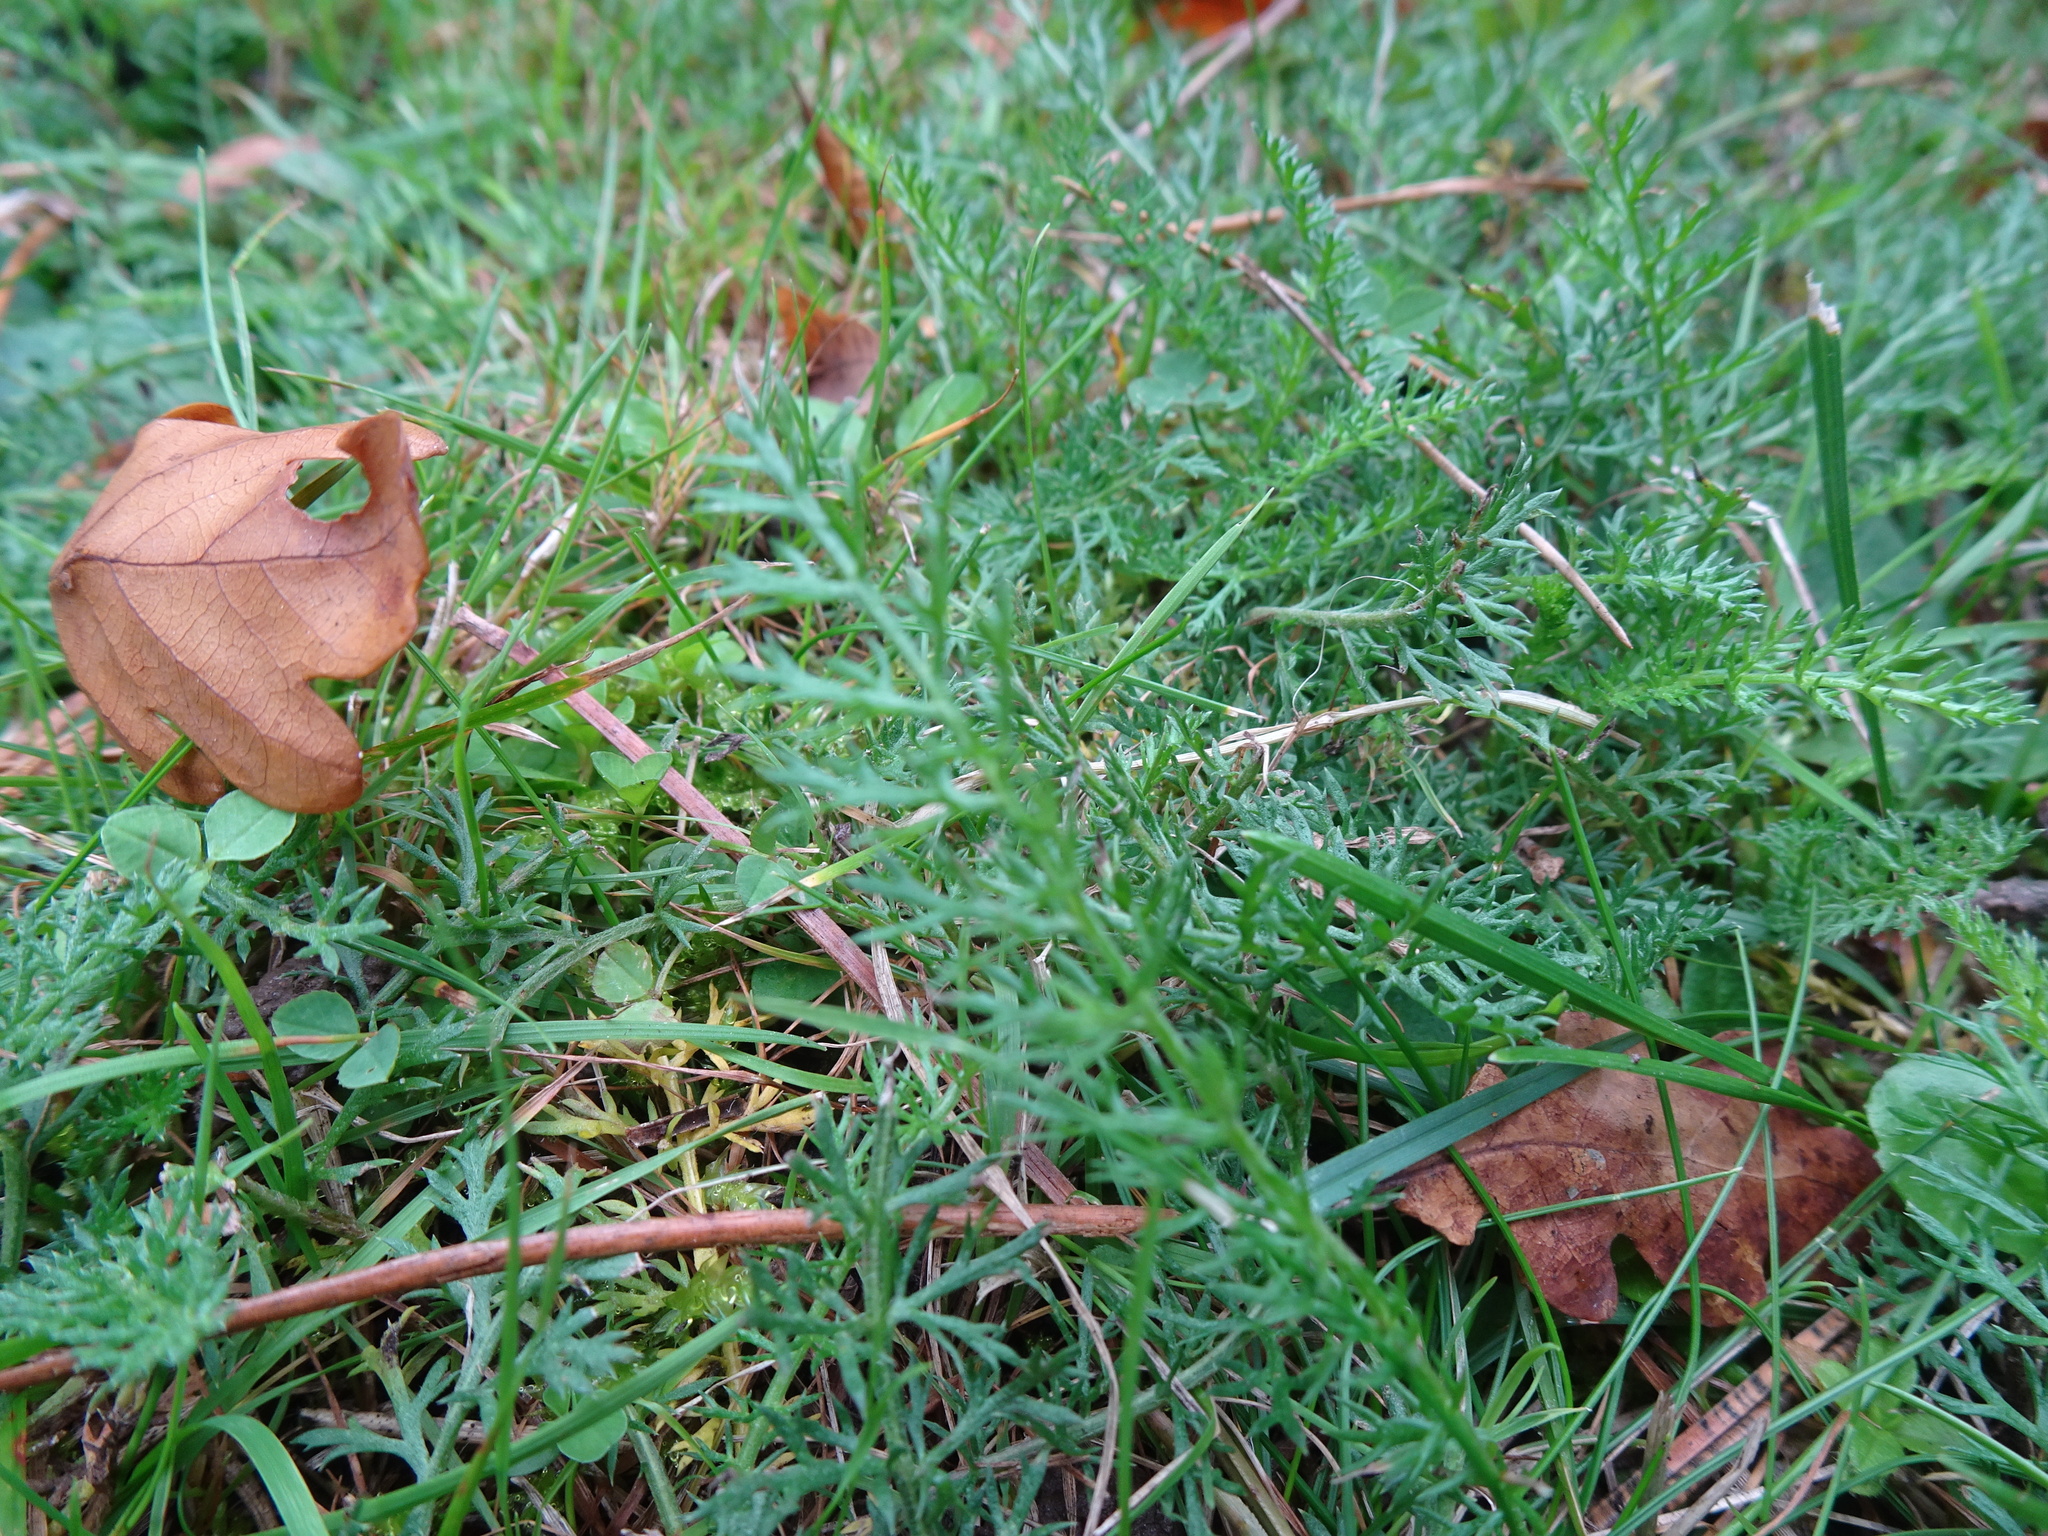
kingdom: Plantae
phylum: Tracheophyta
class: Magnoliopsida
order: Asterales
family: Asteraceae
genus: Achillea
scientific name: Achillea millefolium
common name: Yarrow
